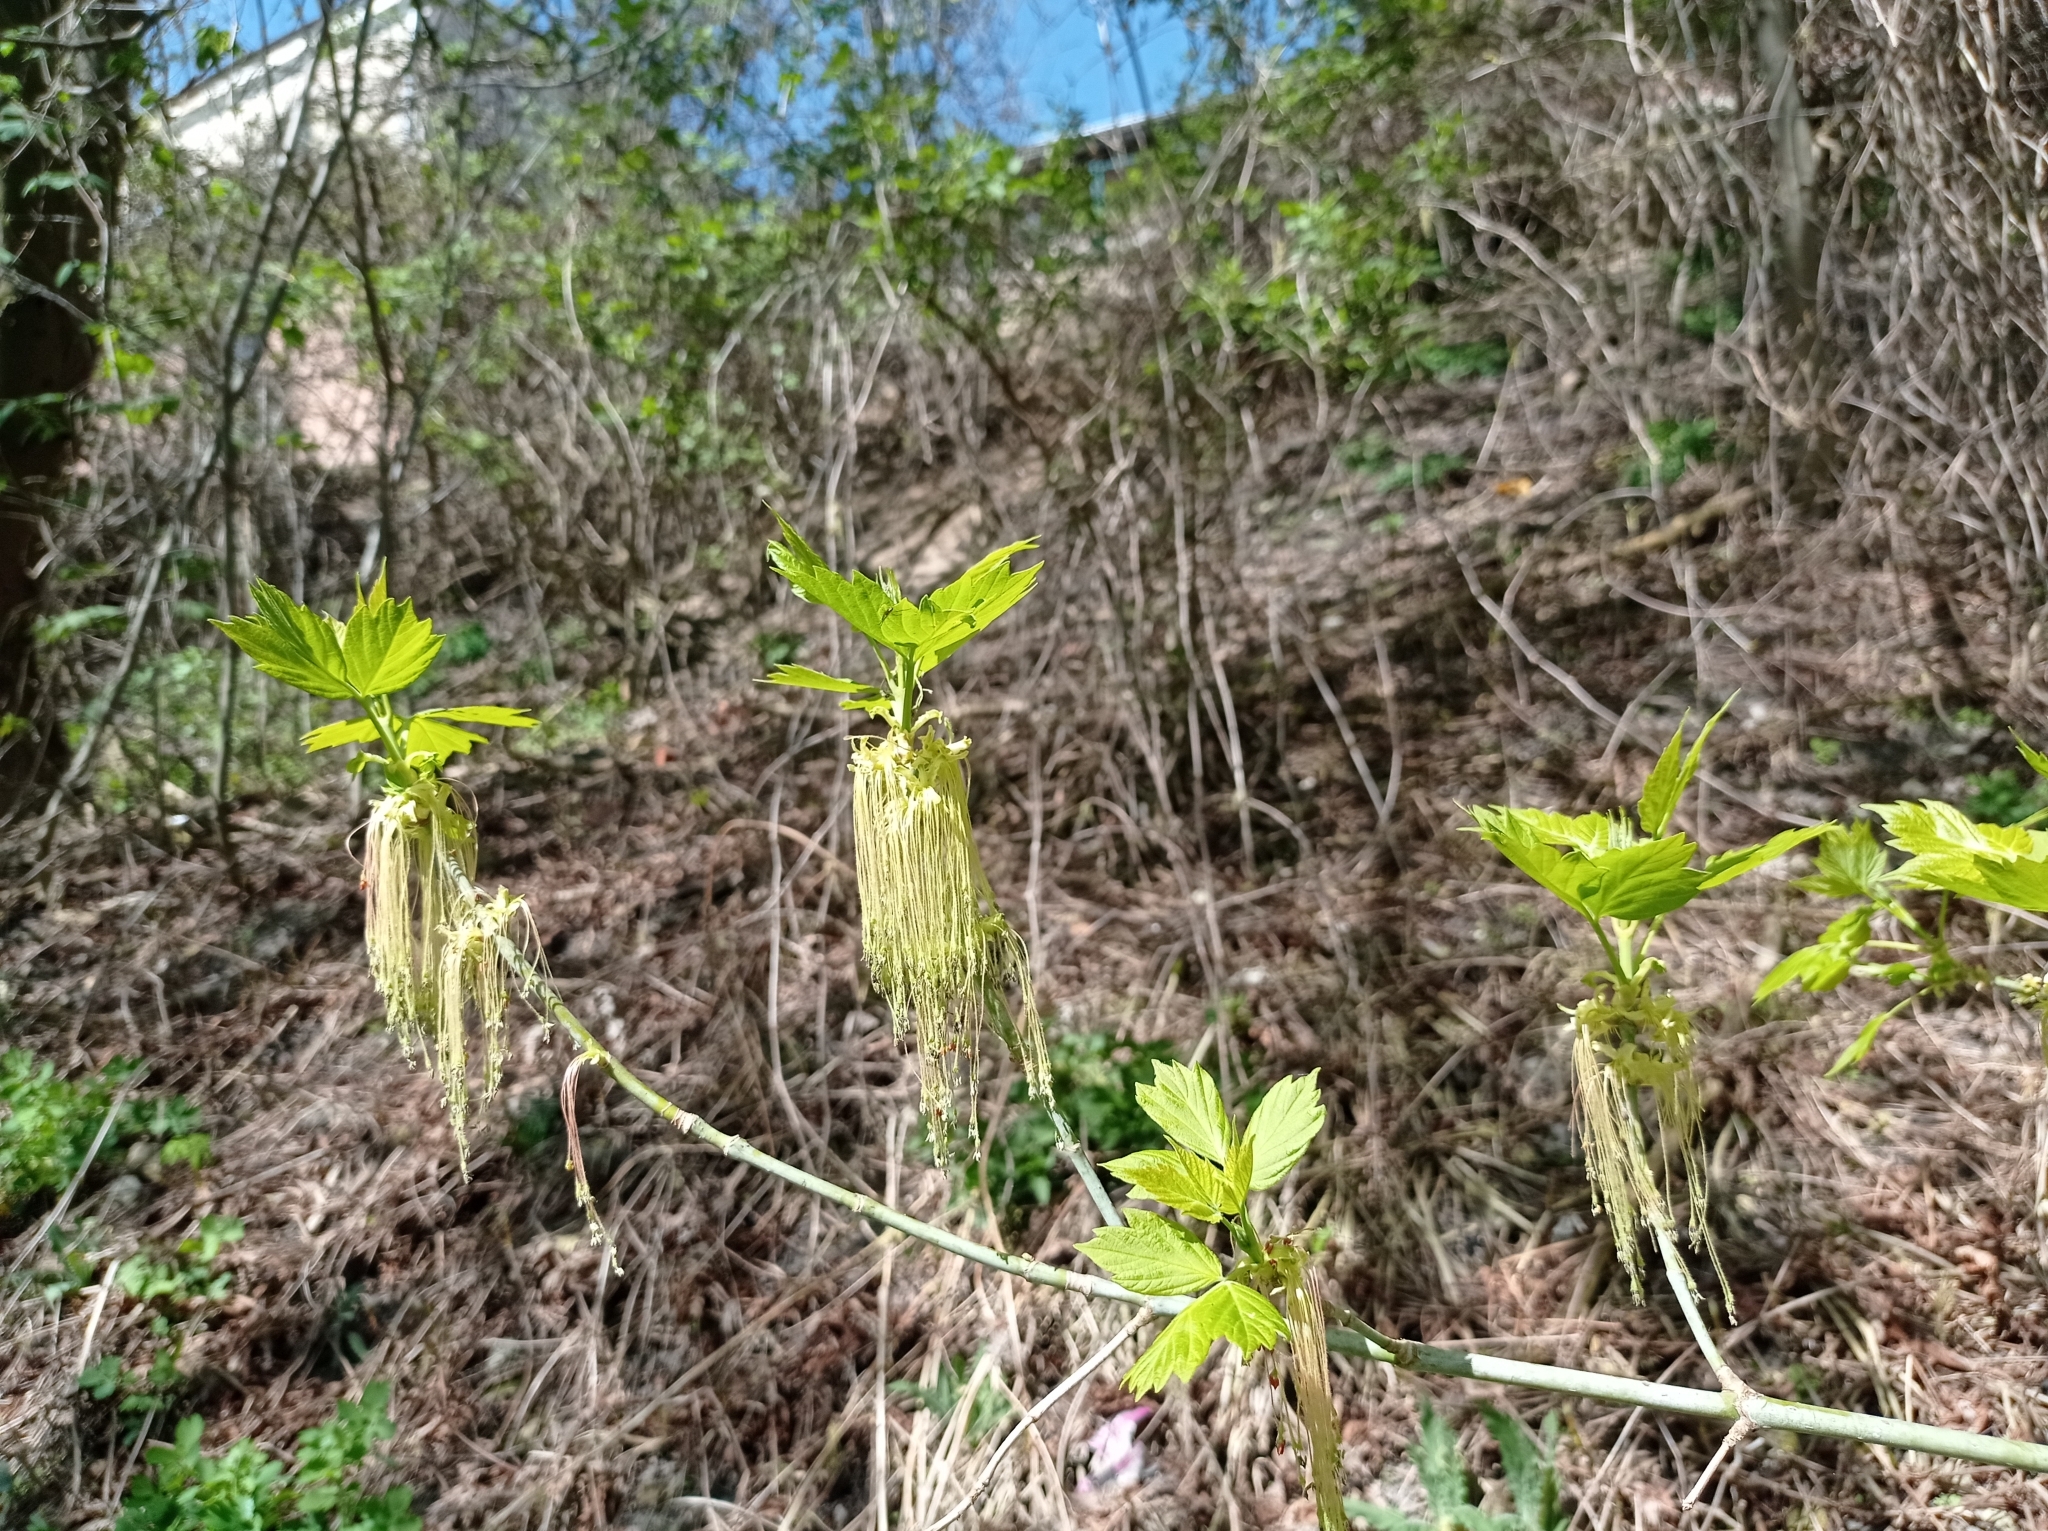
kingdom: Plantae
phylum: Tracheophyta
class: Magnoliopsida
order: Sapindales
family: Sapindaceae
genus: Acer
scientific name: Acer negundo
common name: Ashleaf maple
